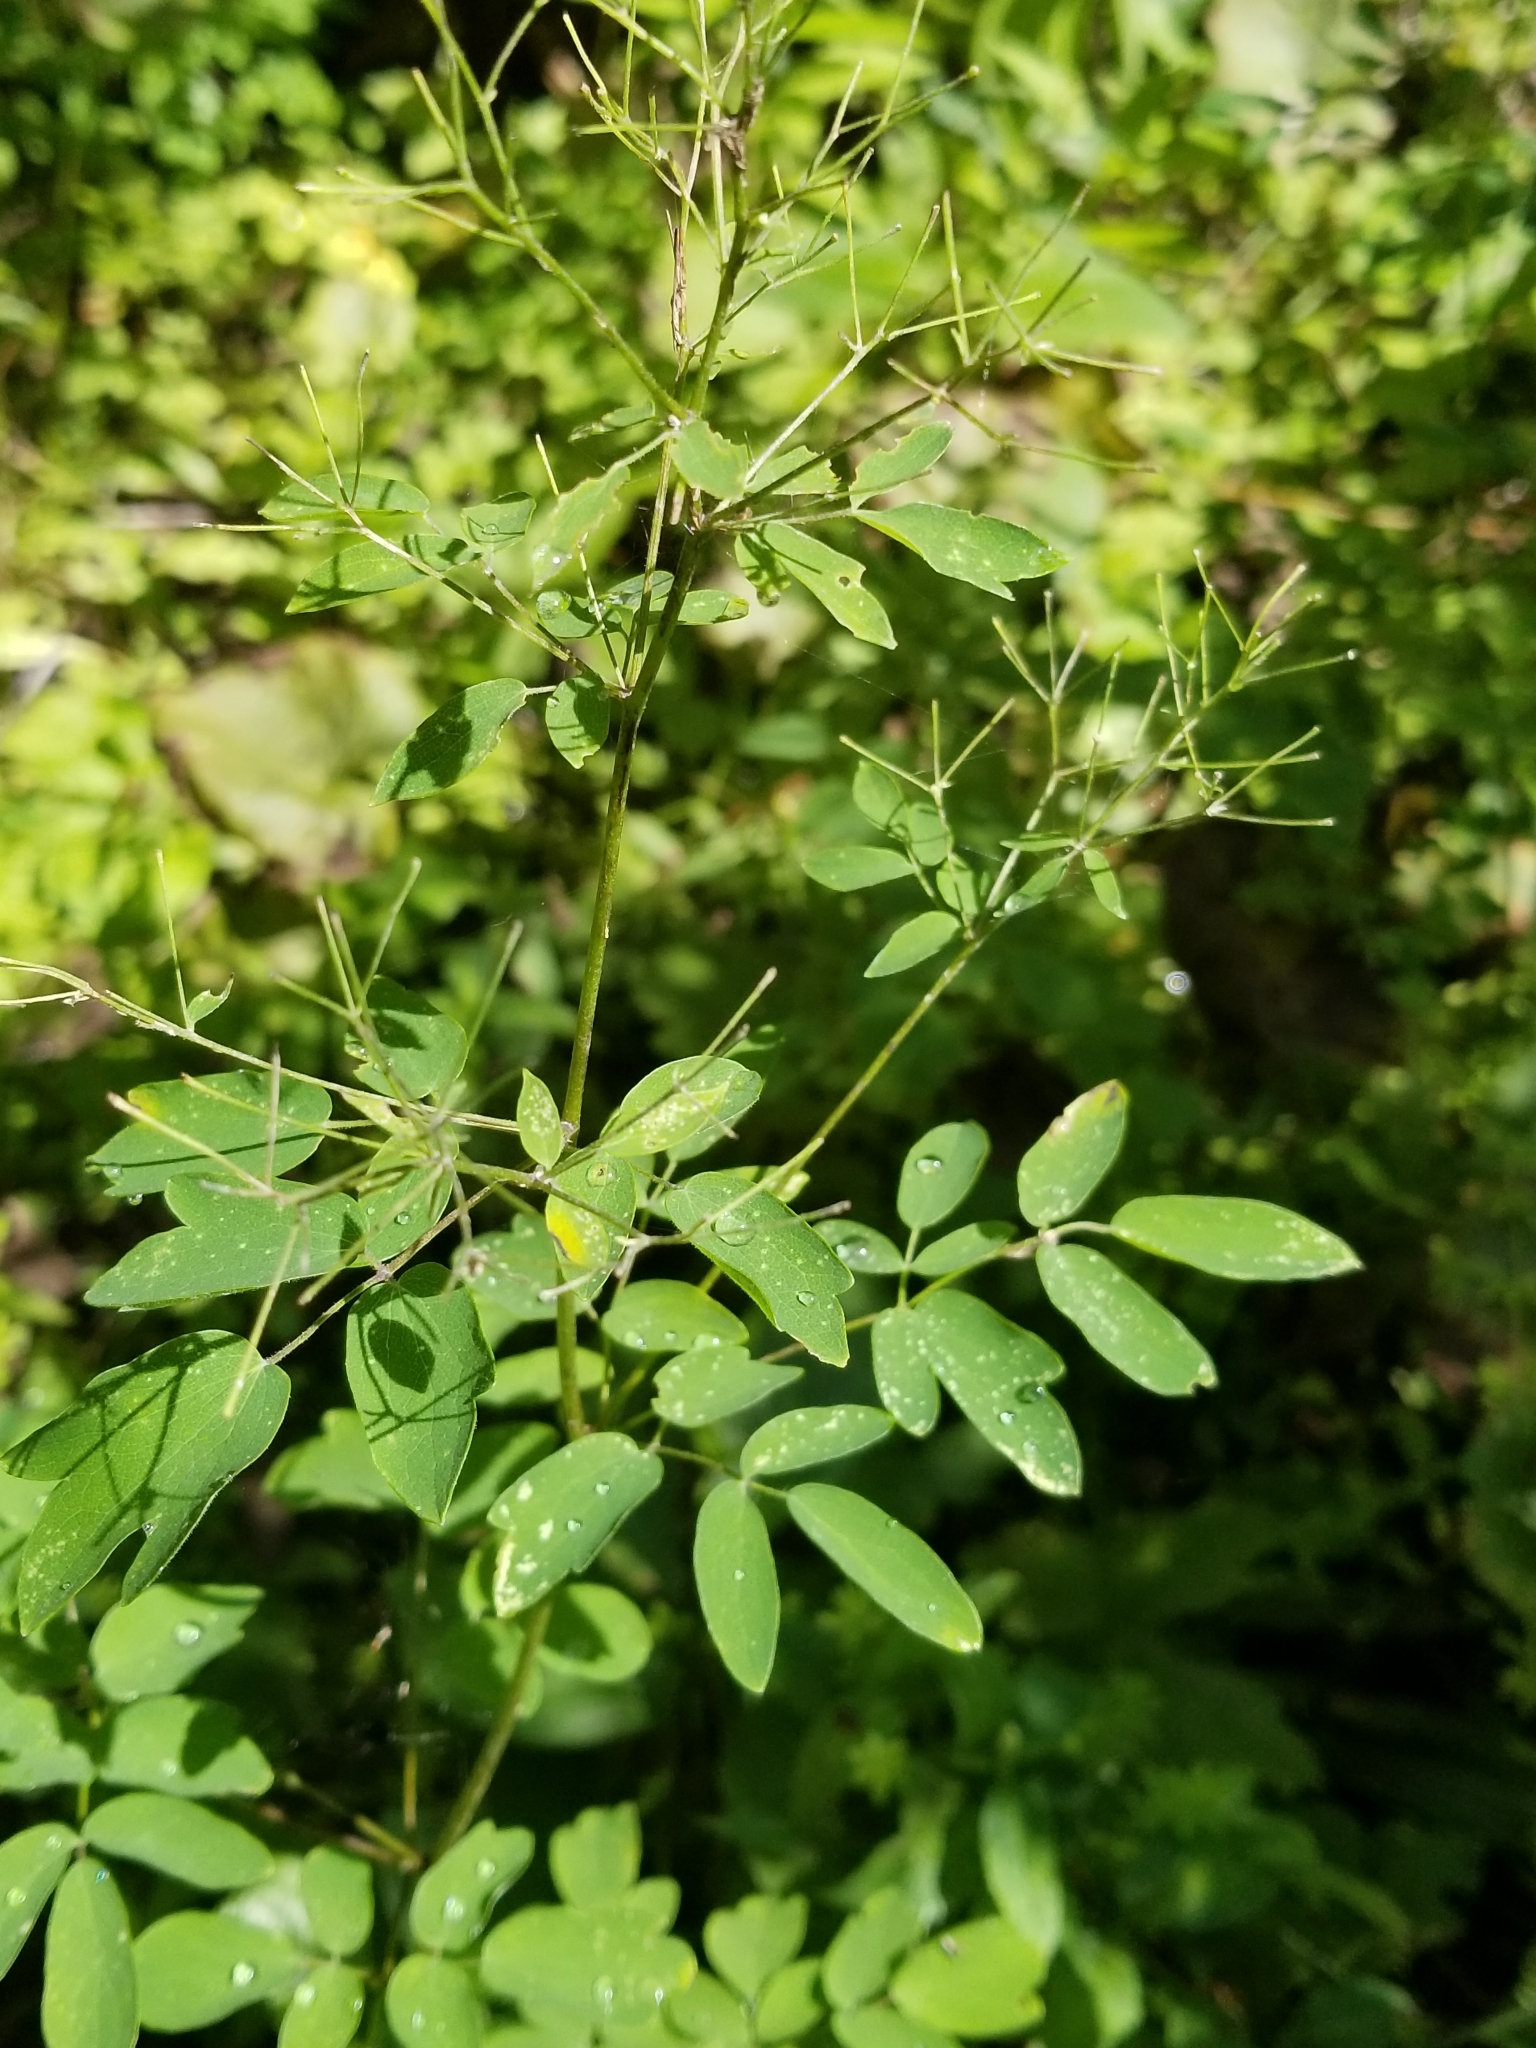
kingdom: Plantae
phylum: Tracheophyta
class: Magnoliopsida
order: Ranunculales
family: Ranunculaceae
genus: Thalictrum
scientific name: Thalictrum pubescens
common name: King-of-the-meadow
